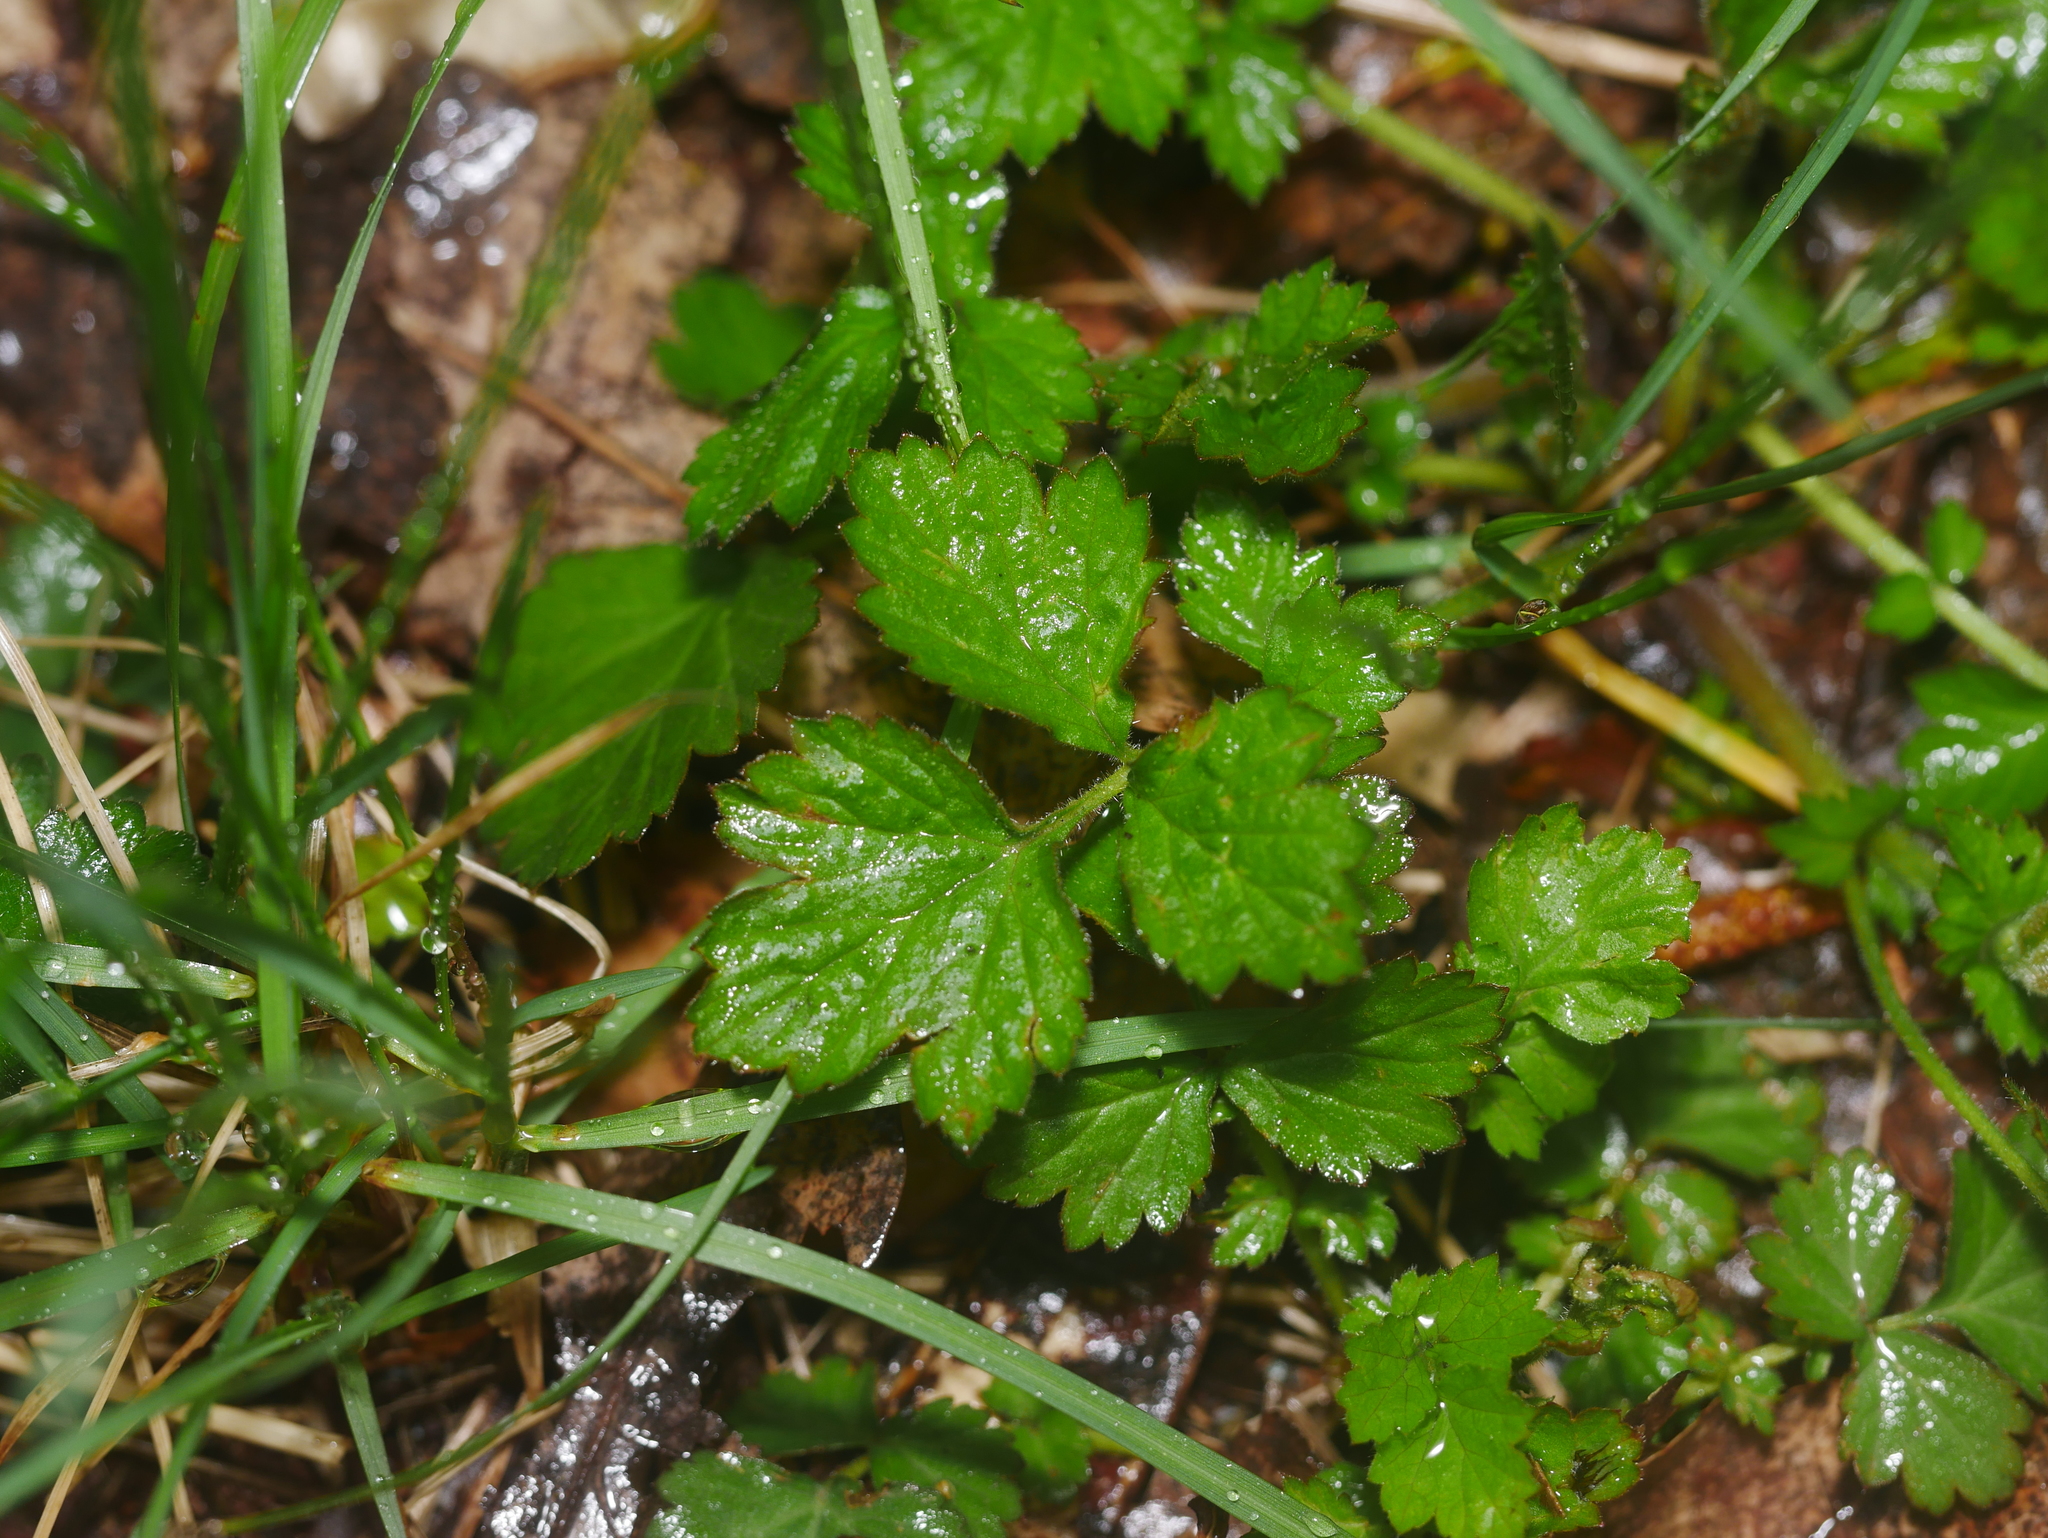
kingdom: Plantae
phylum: Tracheophyta
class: Magnoliopsida
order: Rosales
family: Rosaceae
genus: Geum
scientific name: Geum urbanum
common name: Wood avens
